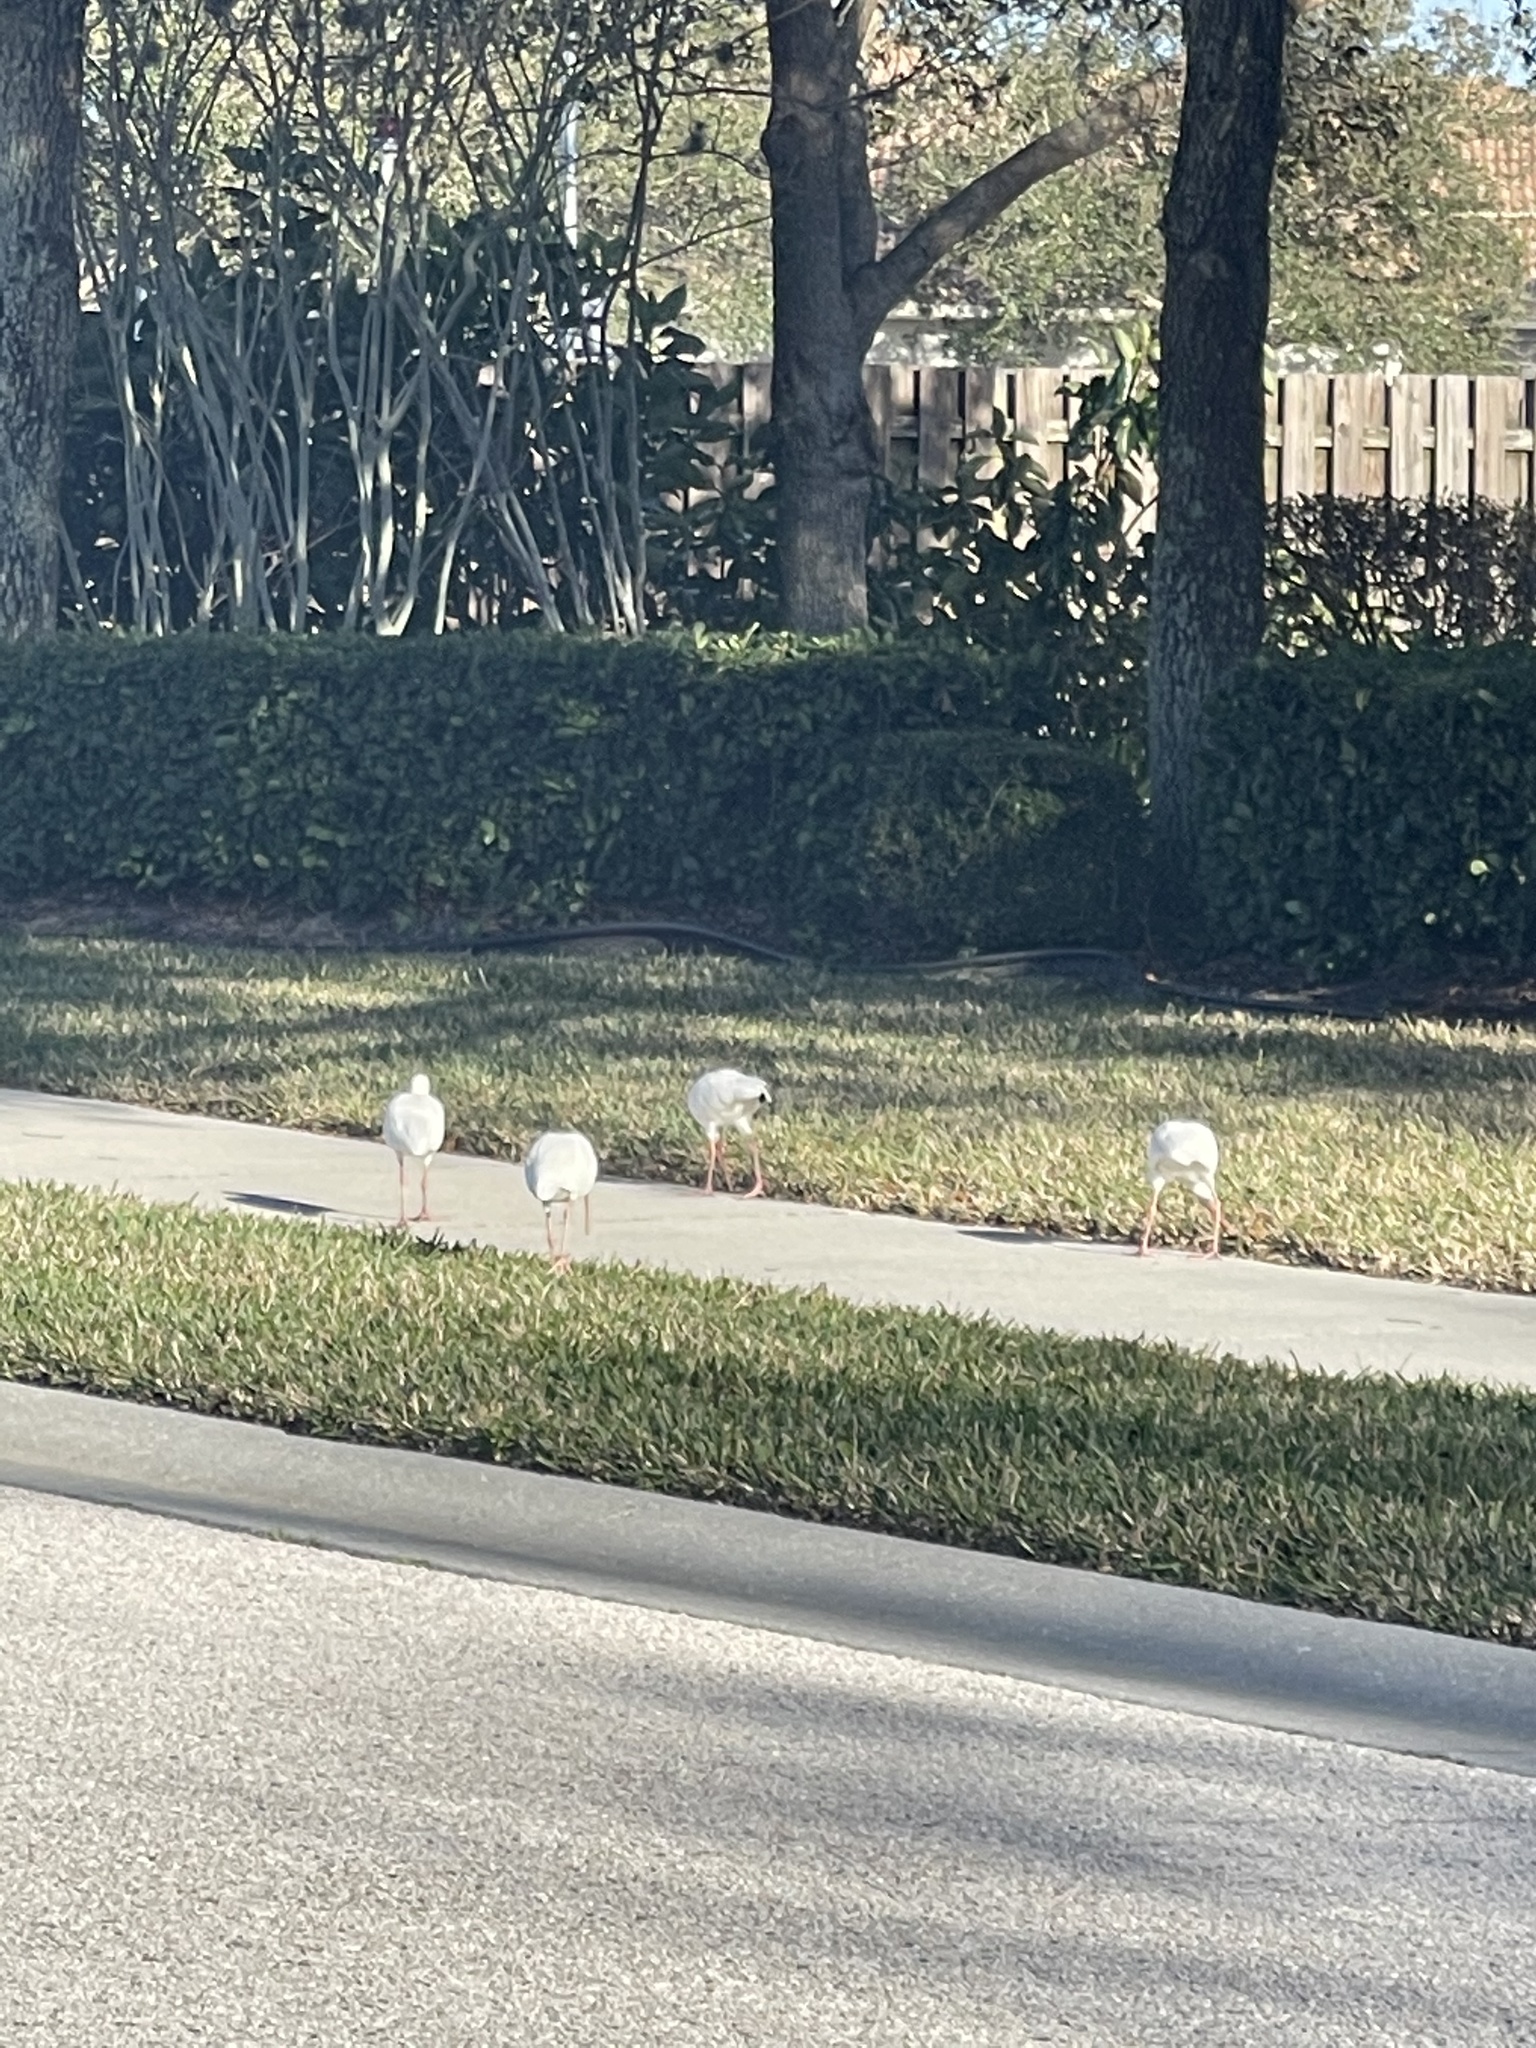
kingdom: Animalia
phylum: Chordata
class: Aves
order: Pelecaniformes
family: Threskiornithidae
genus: Eudocimus
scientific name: Eudocimus albus
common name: White ibis
